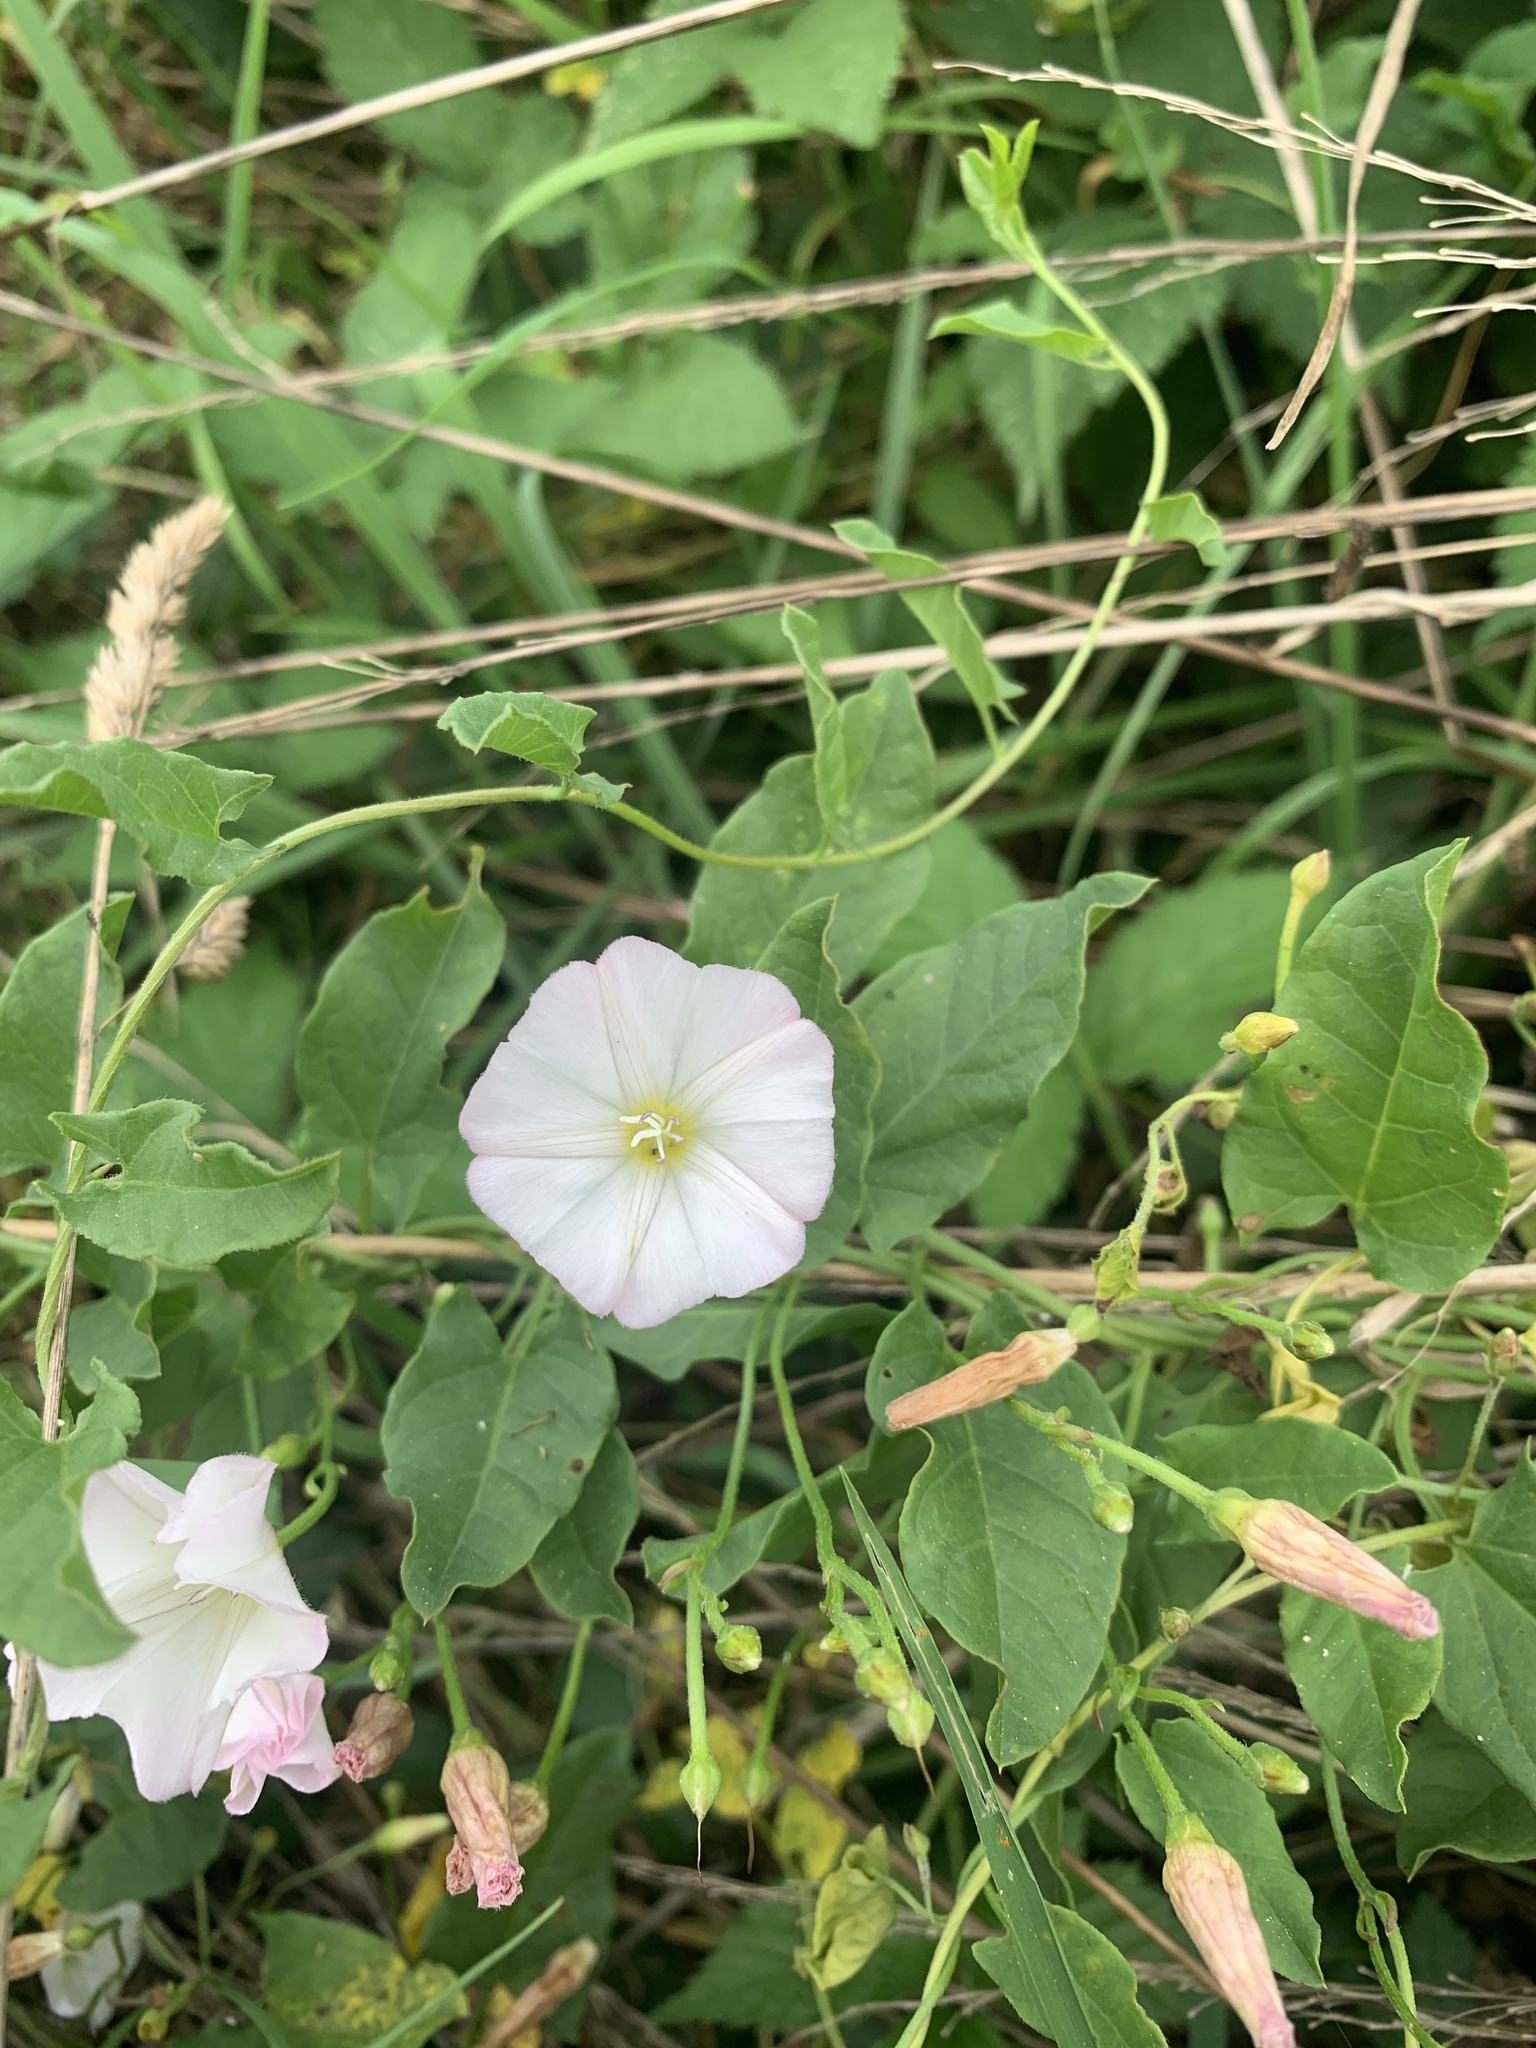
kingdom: Plantae
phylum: Tracheophyta
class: Magnoliopsida
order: Solanales
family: Convolvulaceae
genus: Convolvulus
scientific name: Convolvulus arvensis
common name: Field bindweed
